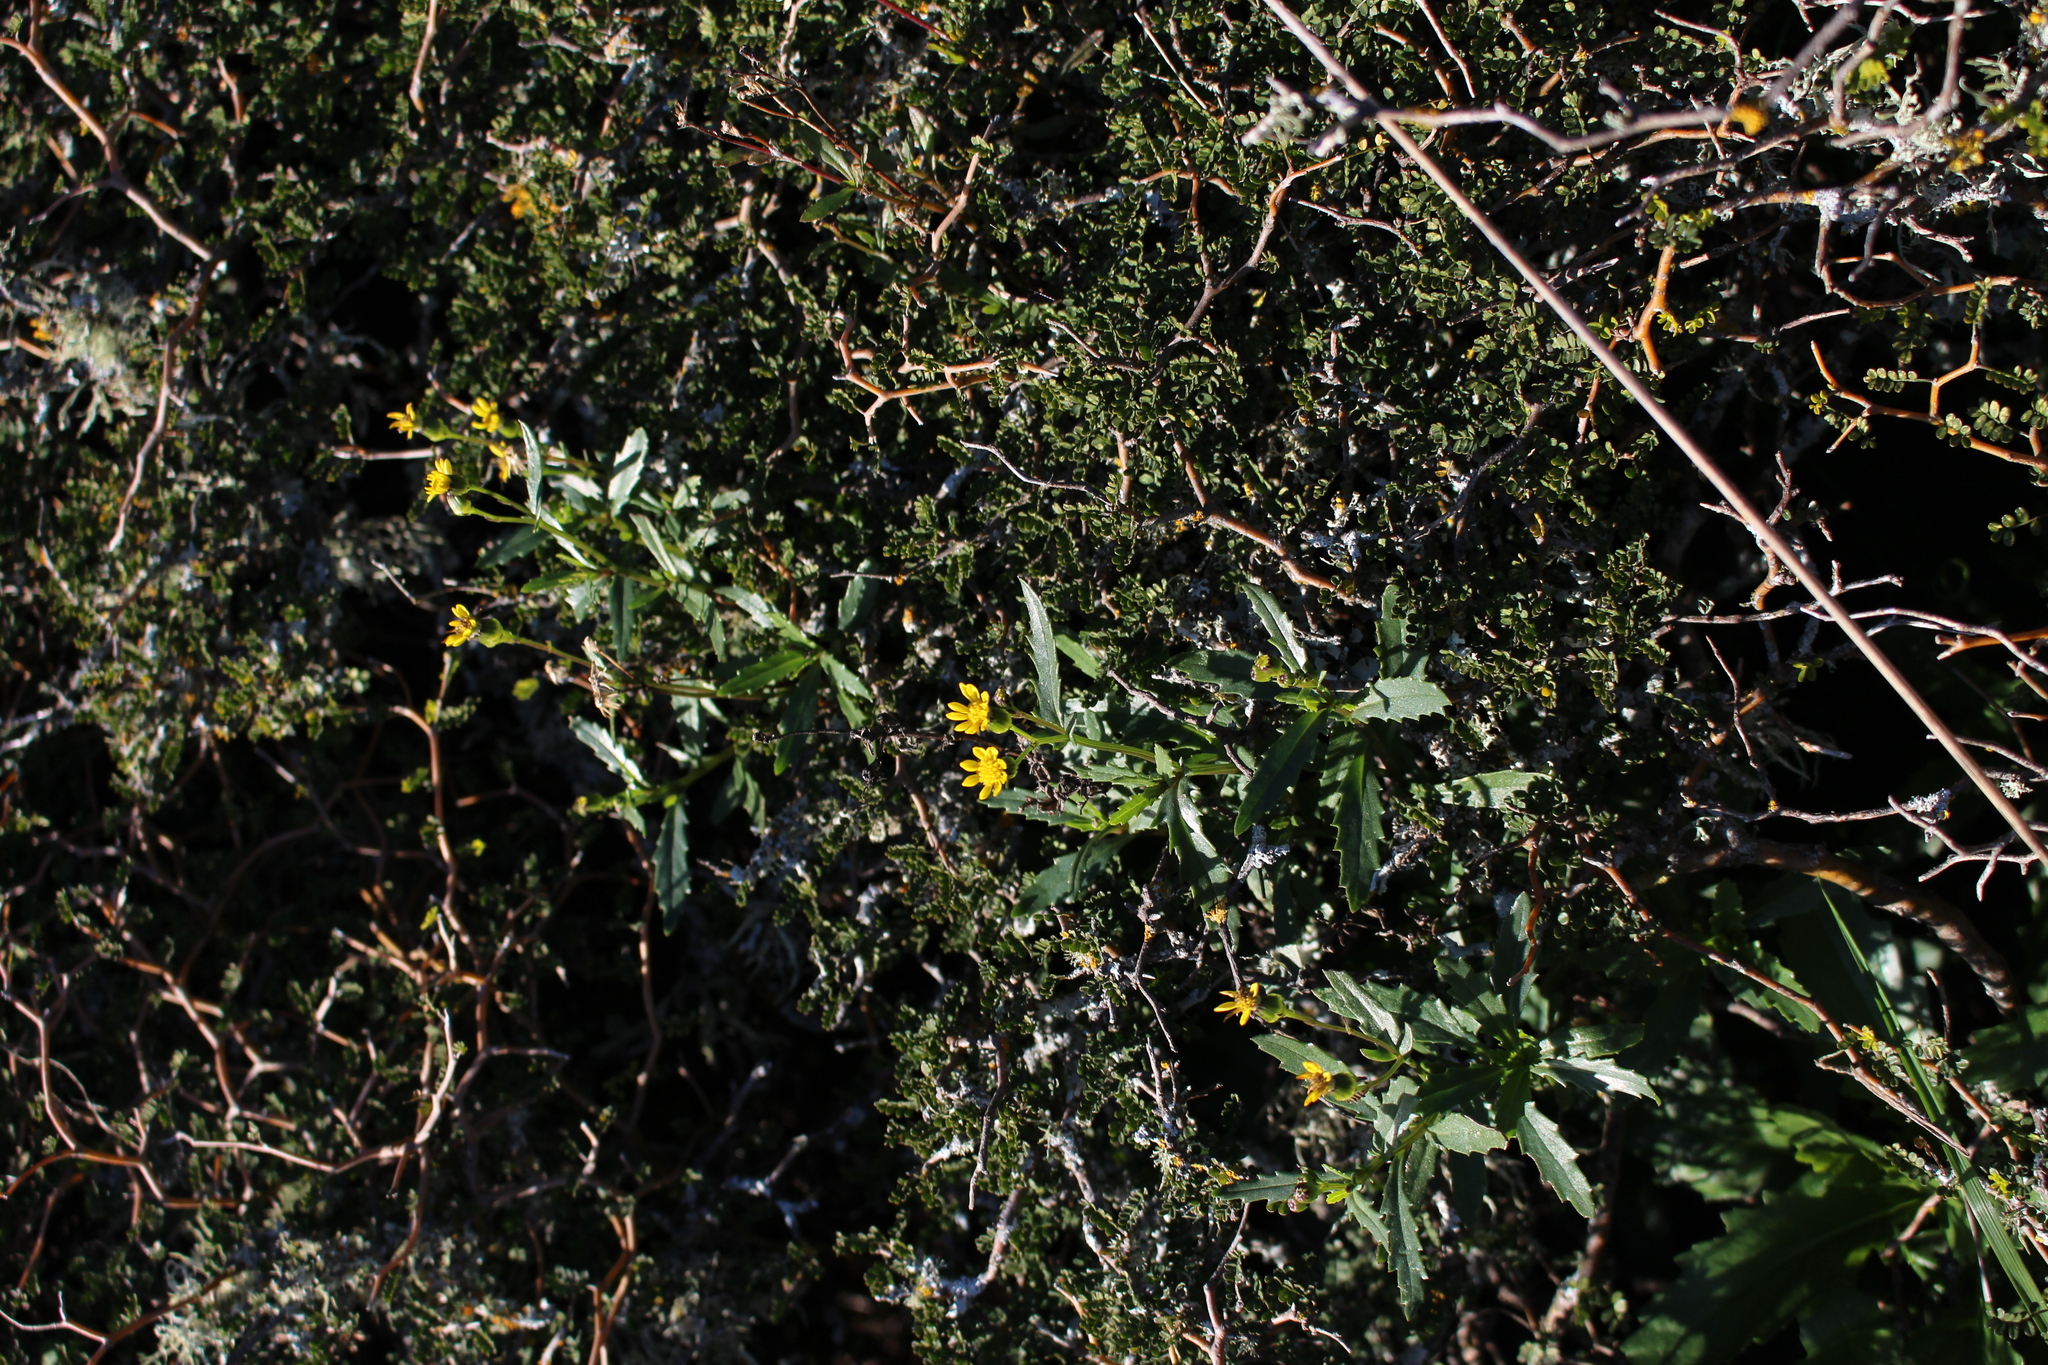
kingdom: Plantae
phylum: Tracheophyta
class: Magnoliopsida
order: Asterales
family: Asteraceae
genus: Senecio
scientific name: Senecio matatini
